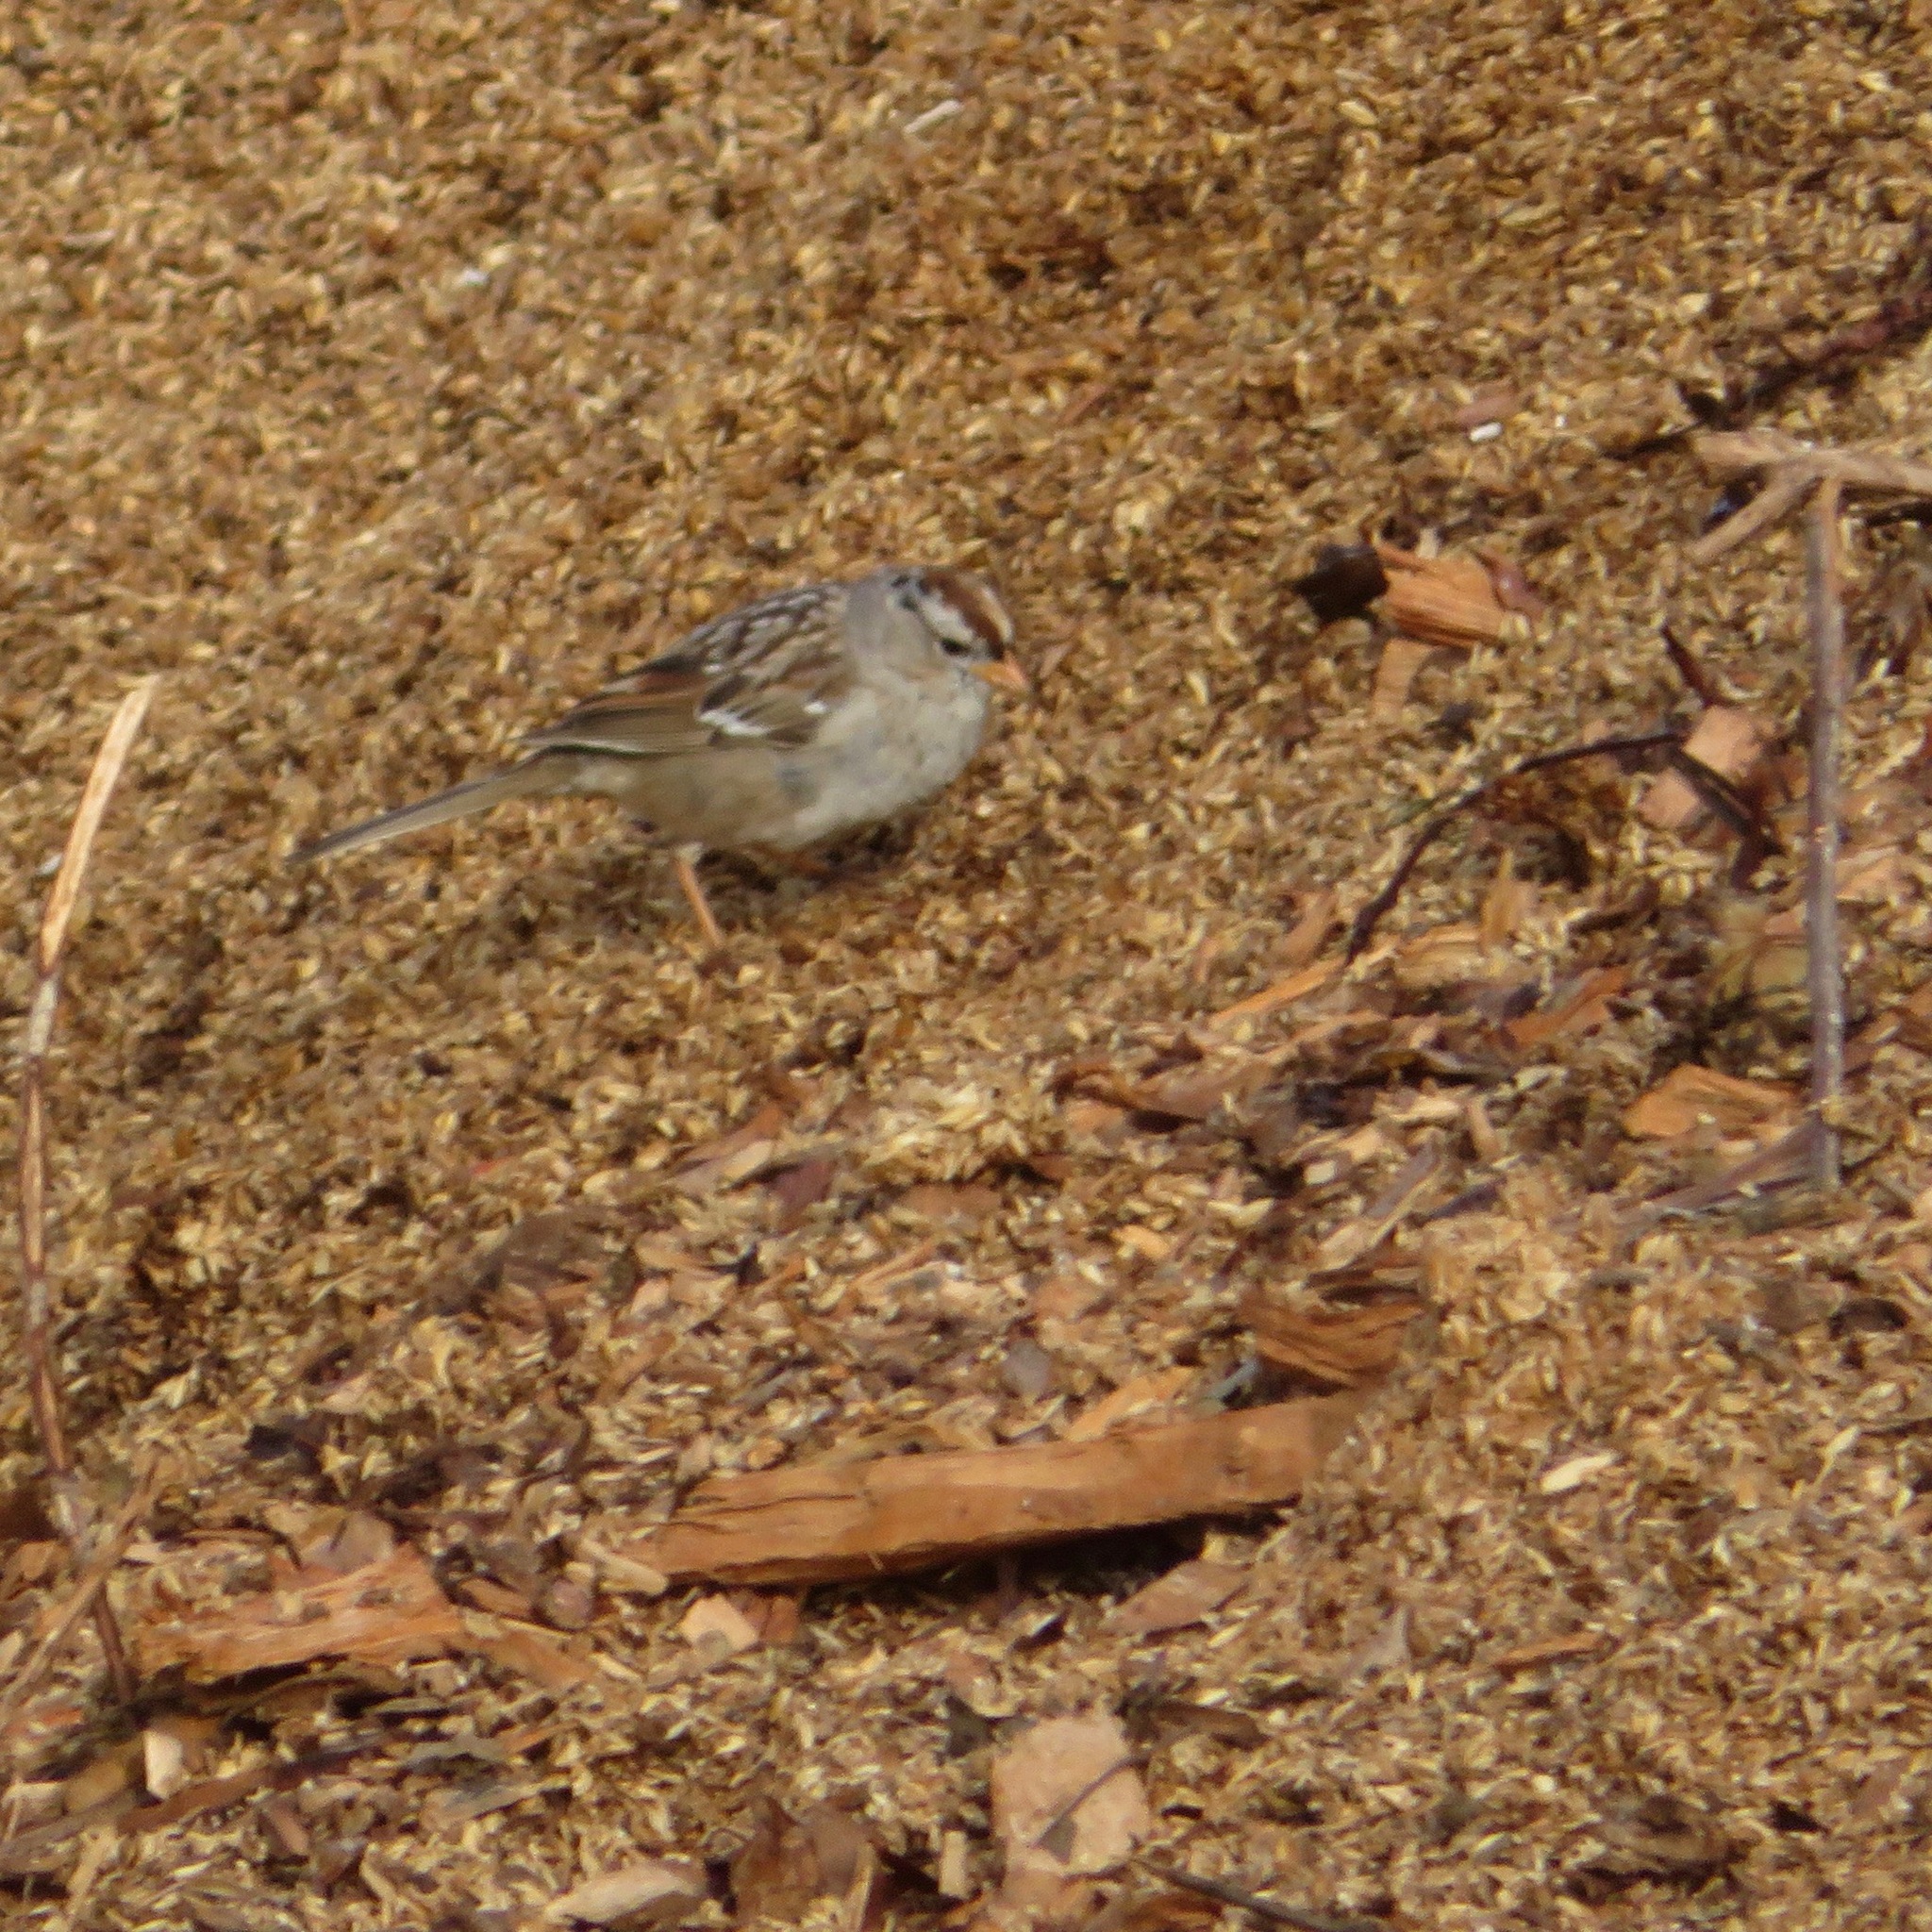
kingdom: Animalia
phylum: Chordata
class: Aves
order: Passeriformes
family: Passerellidae
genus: Zonotrichia
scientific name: Zonotrichia leucophrys
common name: White-crowned sparrow
